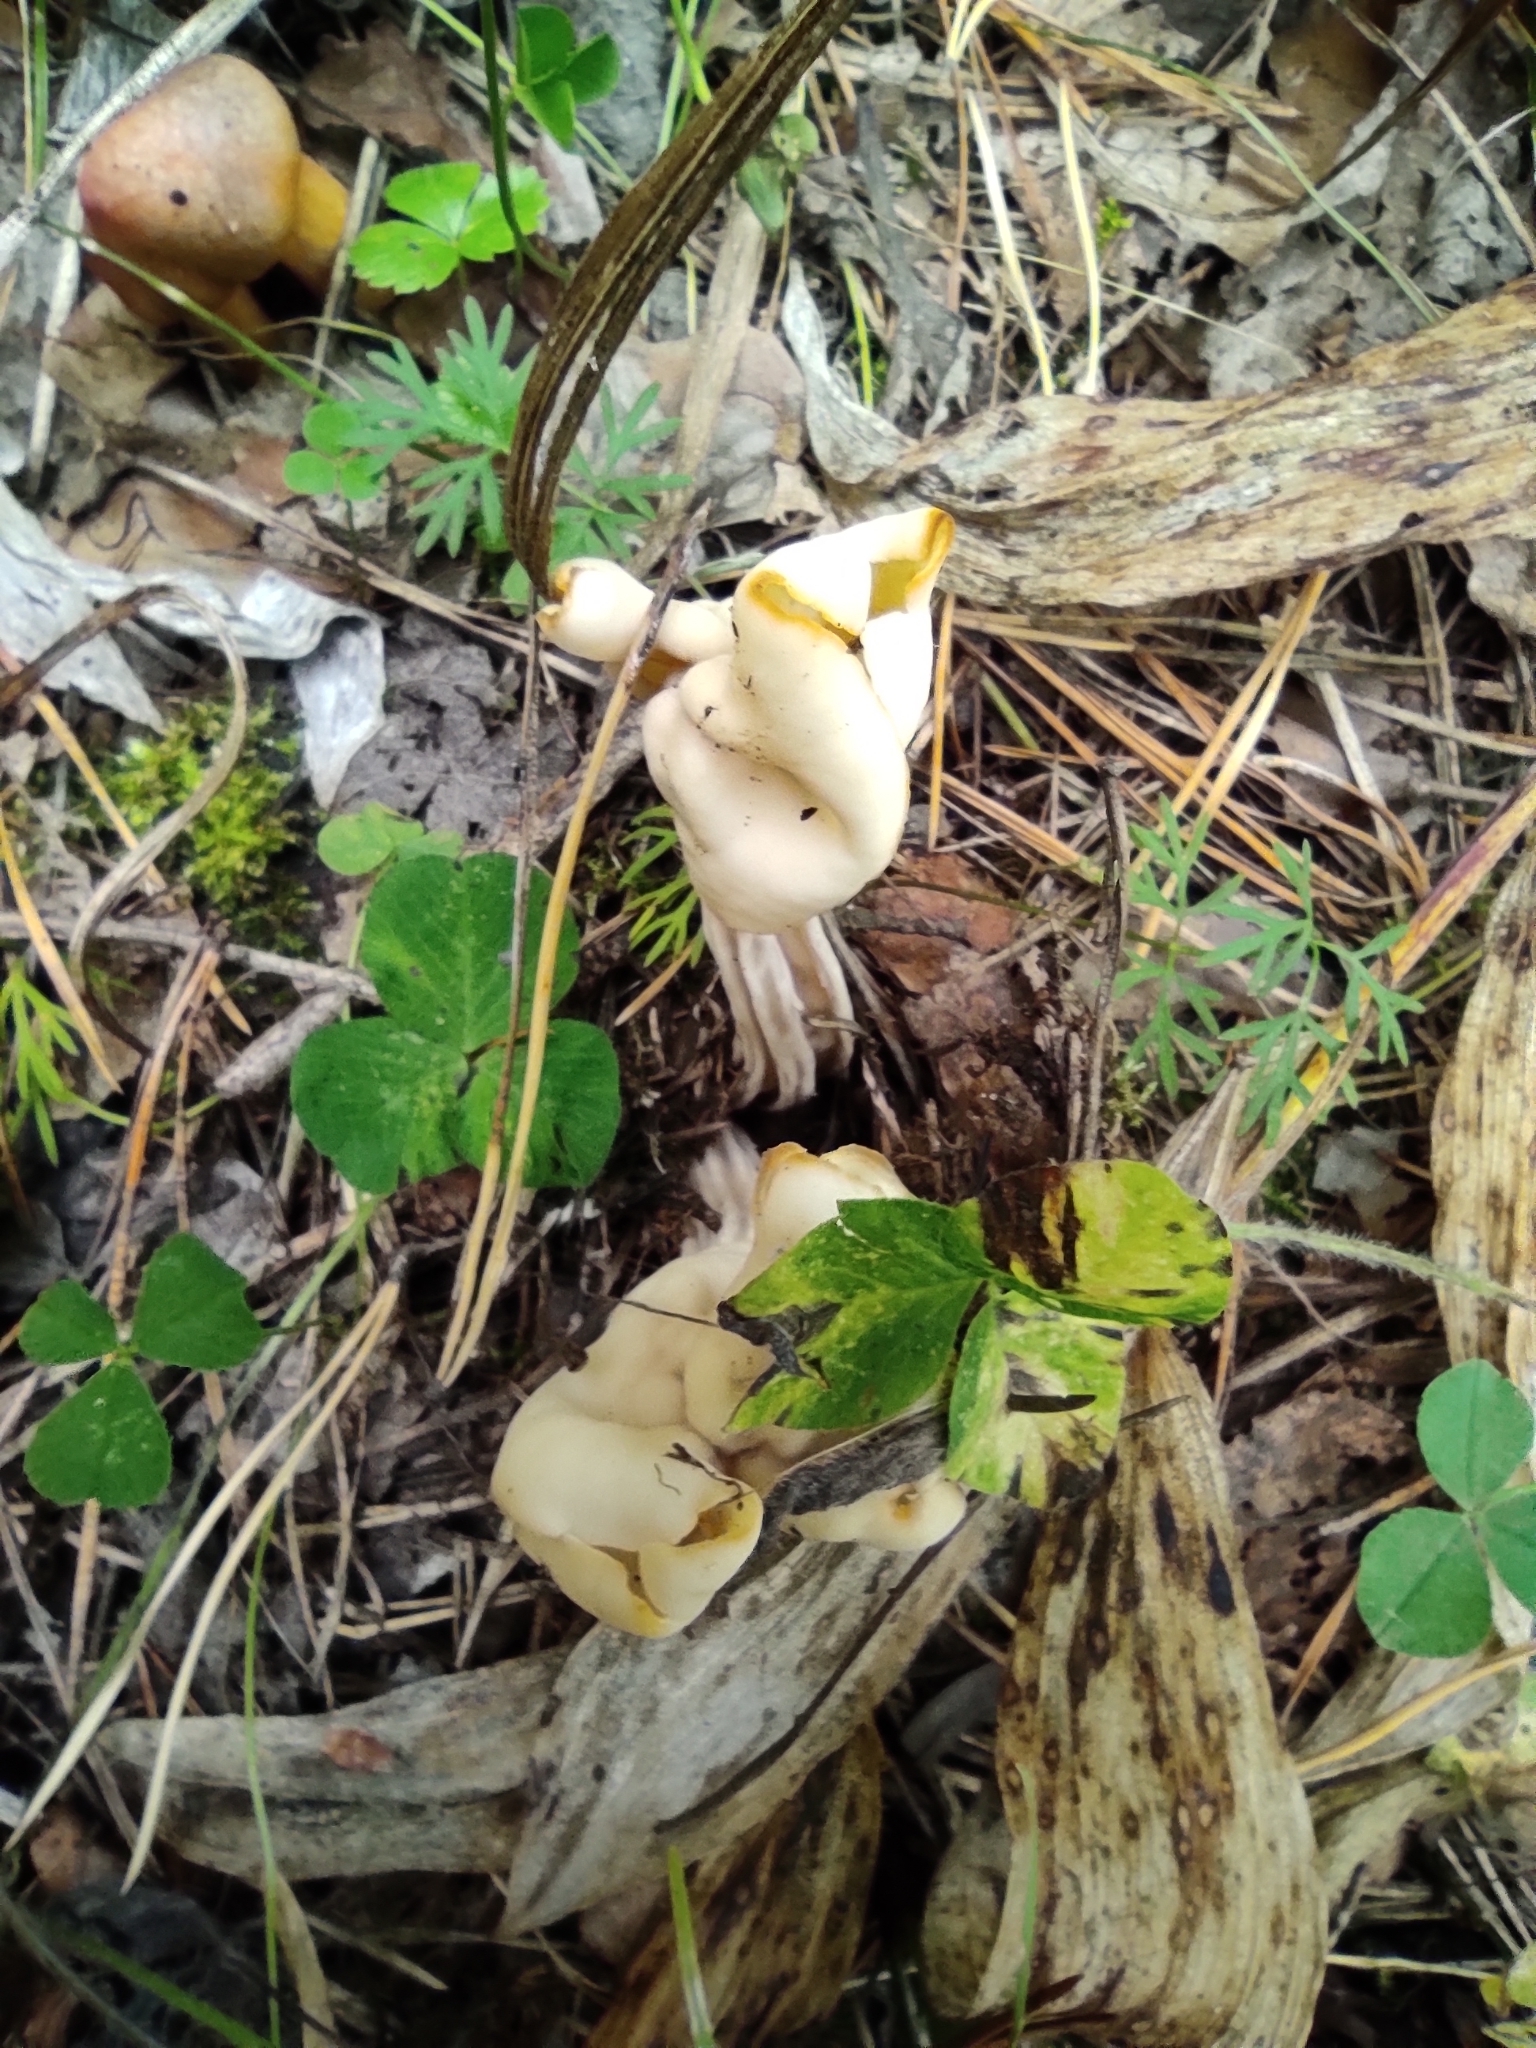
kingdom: Fungi
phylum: Ascomycota
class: Pezizomycetes
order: Pezizales
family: Helvellaceae
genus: Helvella
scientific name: Helvella crispa
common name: White saddle
